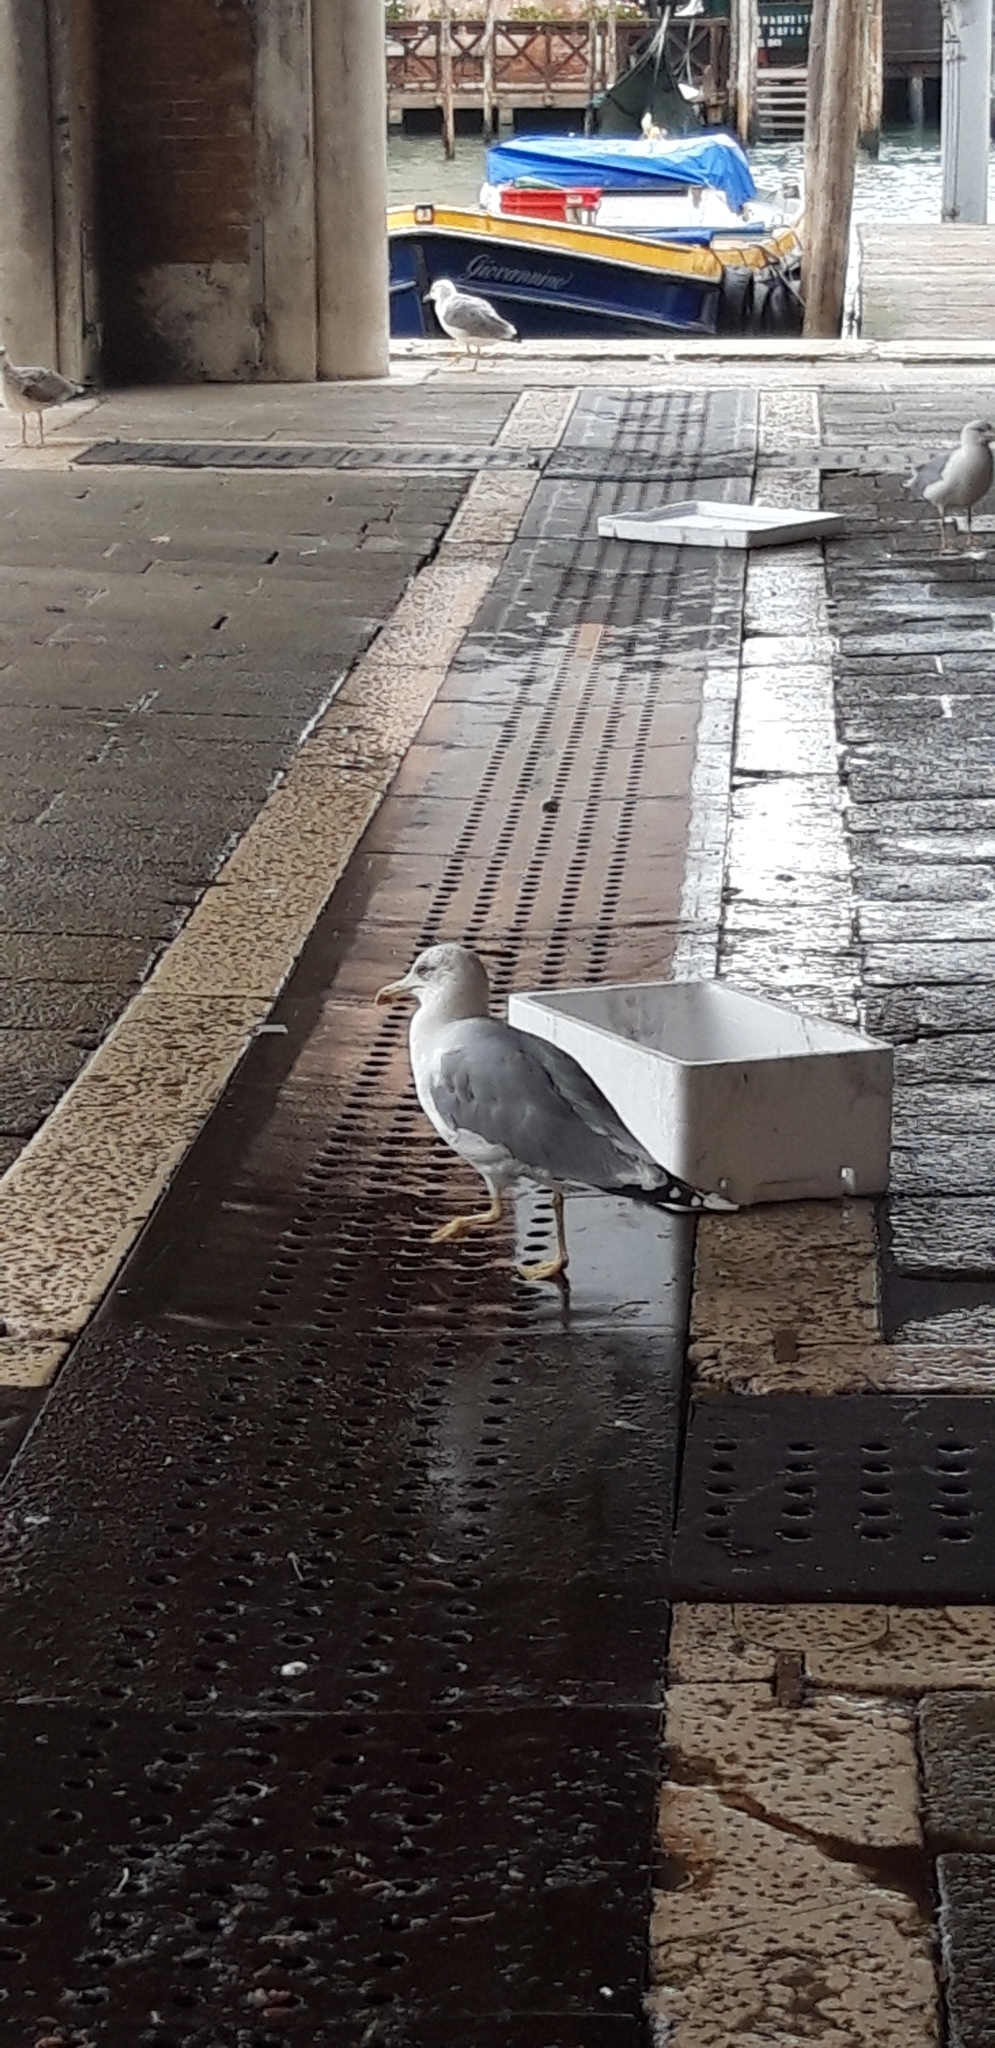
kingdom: Animalia
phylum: Chordata
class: Aves
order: Charadriiformes
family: Laridae
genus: Larus
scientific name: Larus michahellis
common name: Yellow-legged gull
